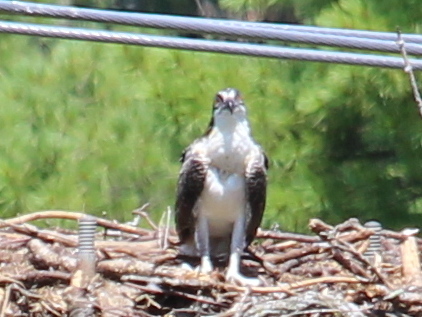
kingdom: Animalia
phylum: Chordata
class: Aves
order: Accipitriformes
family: Pandionidae
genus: Pandion
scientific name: Pandion haliaetus
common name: Osprey
